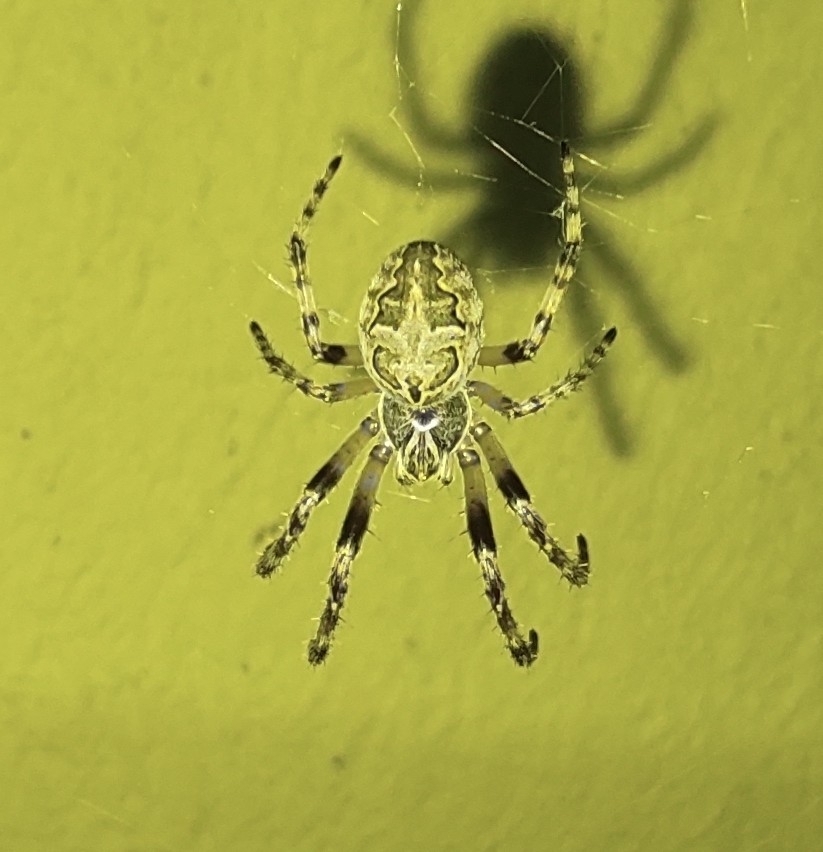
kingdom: Animalia
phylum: Arthropoda
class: Arachnida
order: Araneae
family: Araneidae
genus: Larinioides
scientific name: Larinioides sclopetarius
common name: Bridge orbweaver
